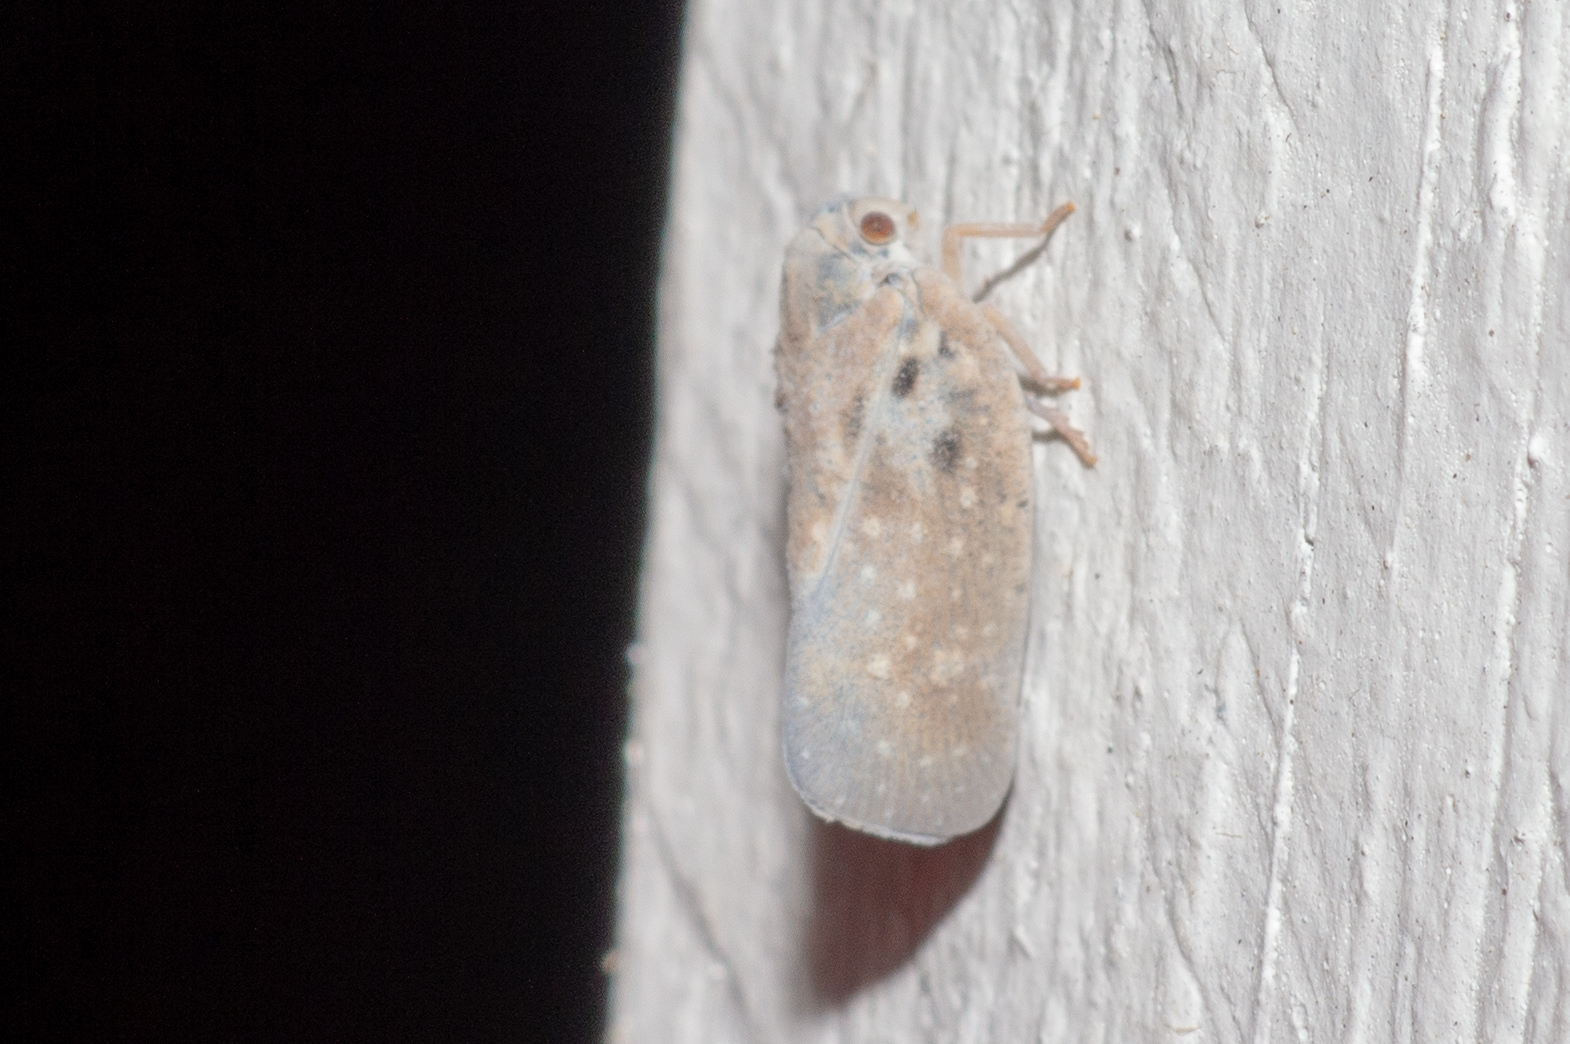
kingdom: Animalia
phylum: Arthropoda
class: Insecta
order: Hemiptera
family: Flatidae
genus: Metcalfa
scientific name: Metcalfa pruinosa
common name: Citrus flatid planthopper
